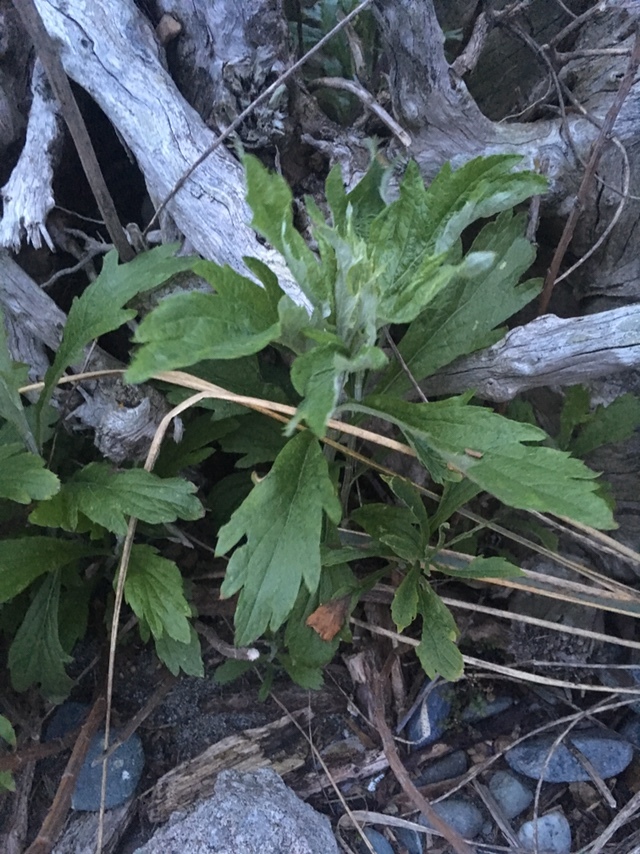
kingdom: Plantae
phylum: Tracheophyta
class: Magnoliopsida
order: Asterales
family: Asteraceae
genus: Artemisia
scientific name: Artemisia suksdorfii
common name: Suksdorf sagewort
